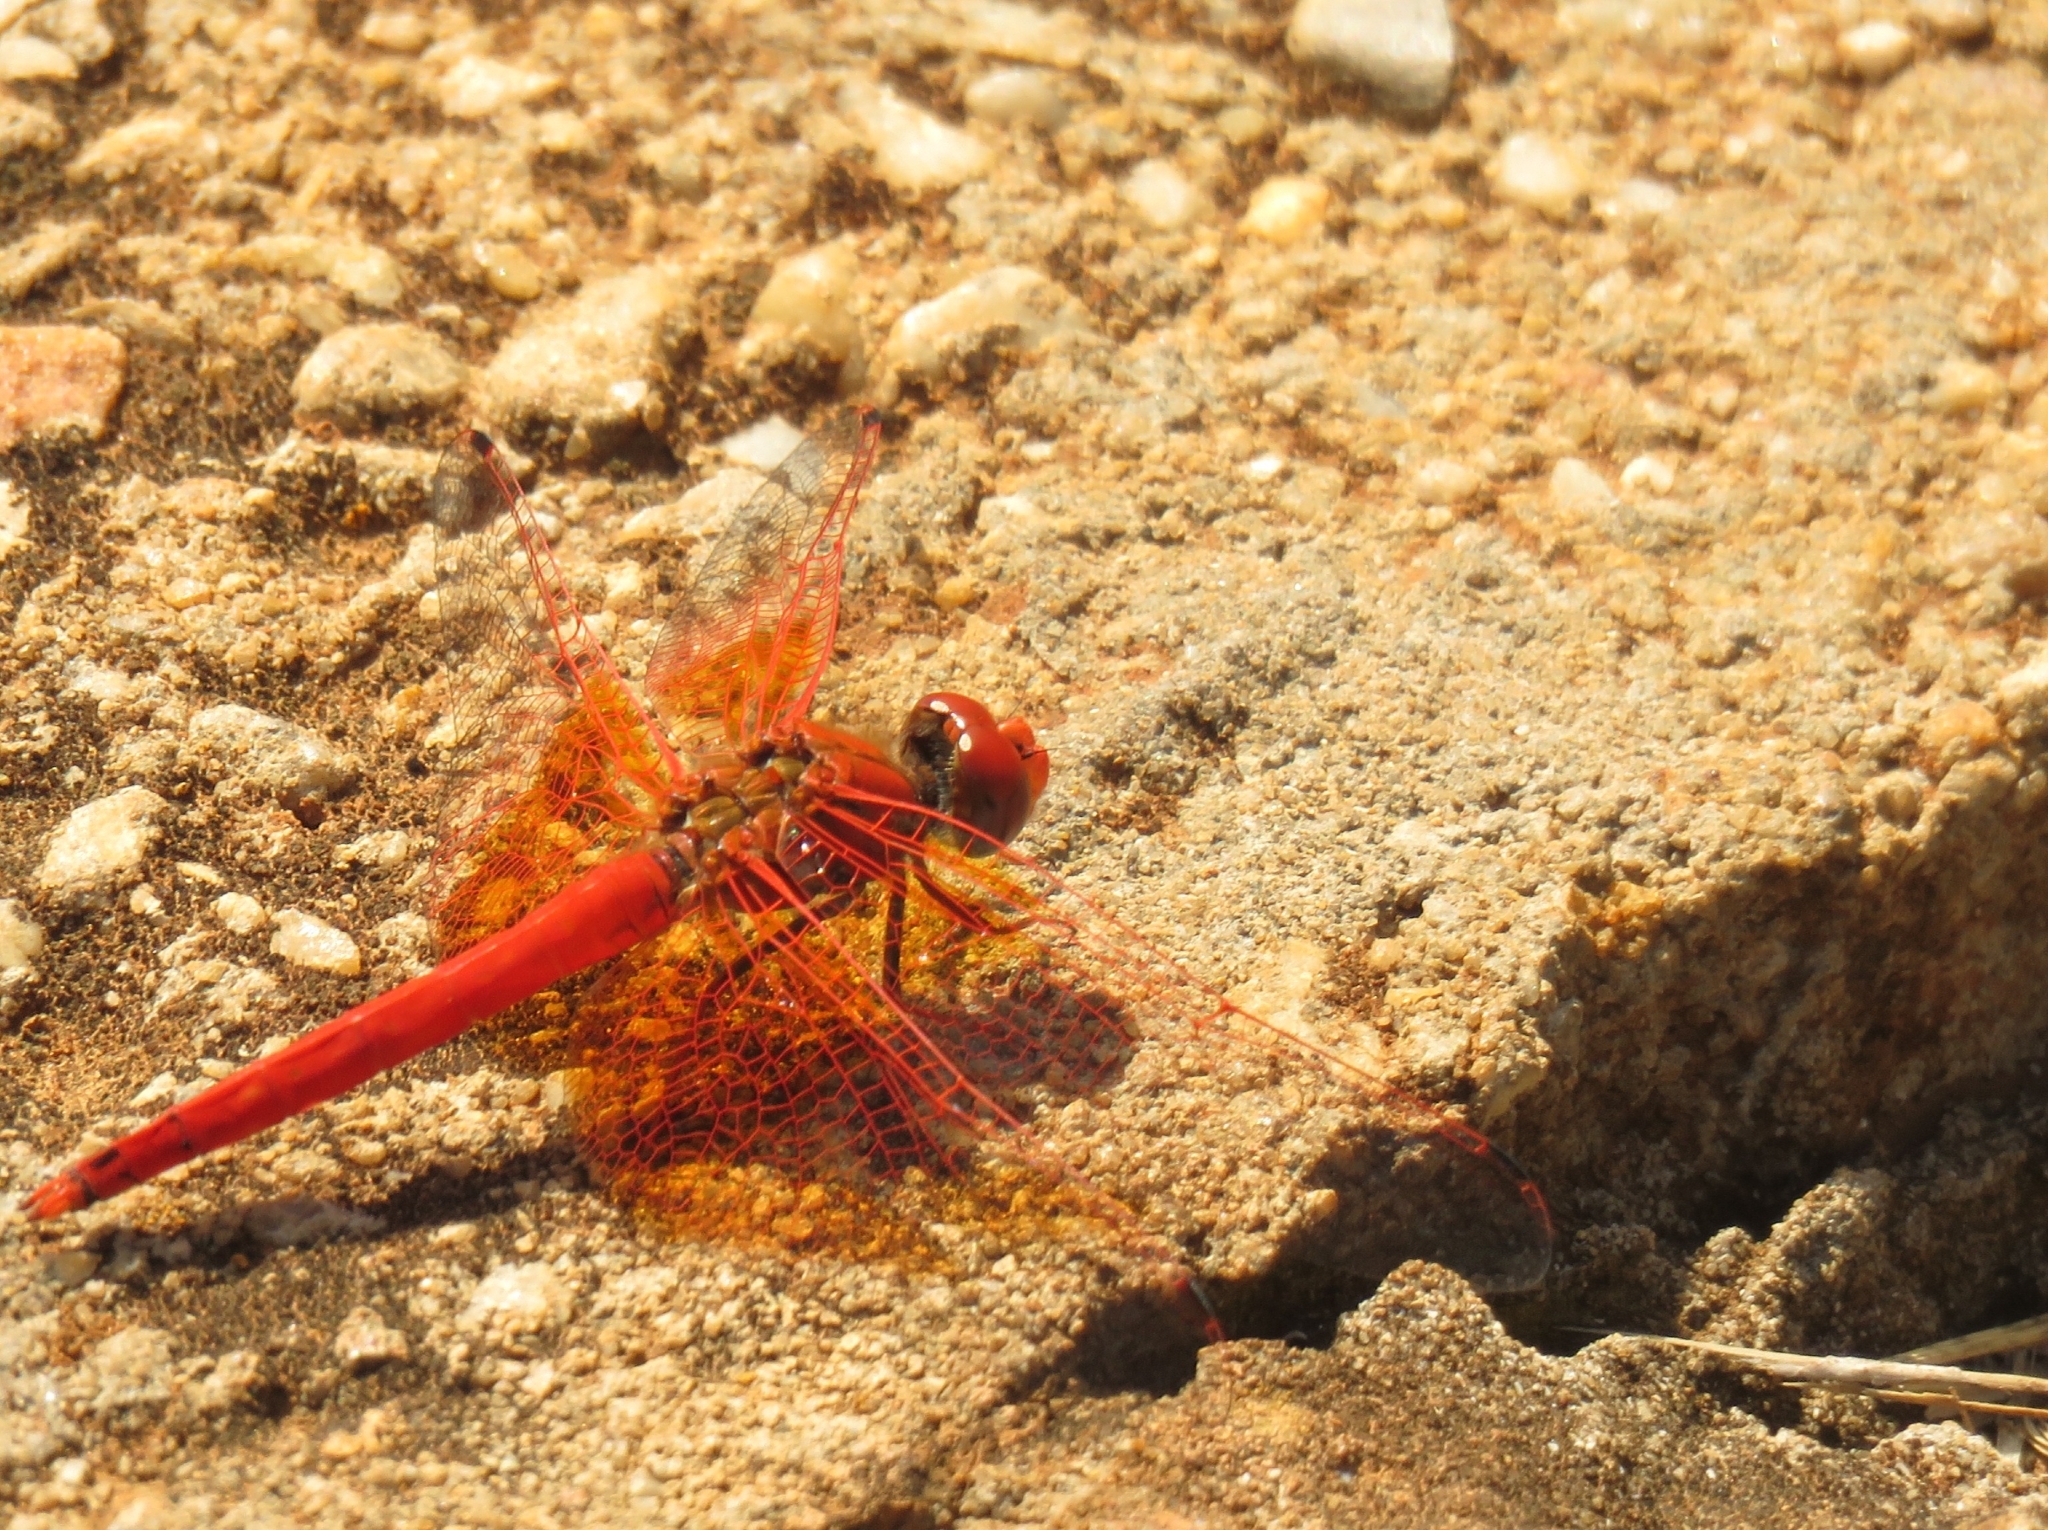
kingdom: Animalia
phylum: Arthropoda
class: Insecta
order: Odonata
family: Libellulidae
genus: Trithemis
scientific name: Trithemis kirbyi
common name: Kirby's dropwing
